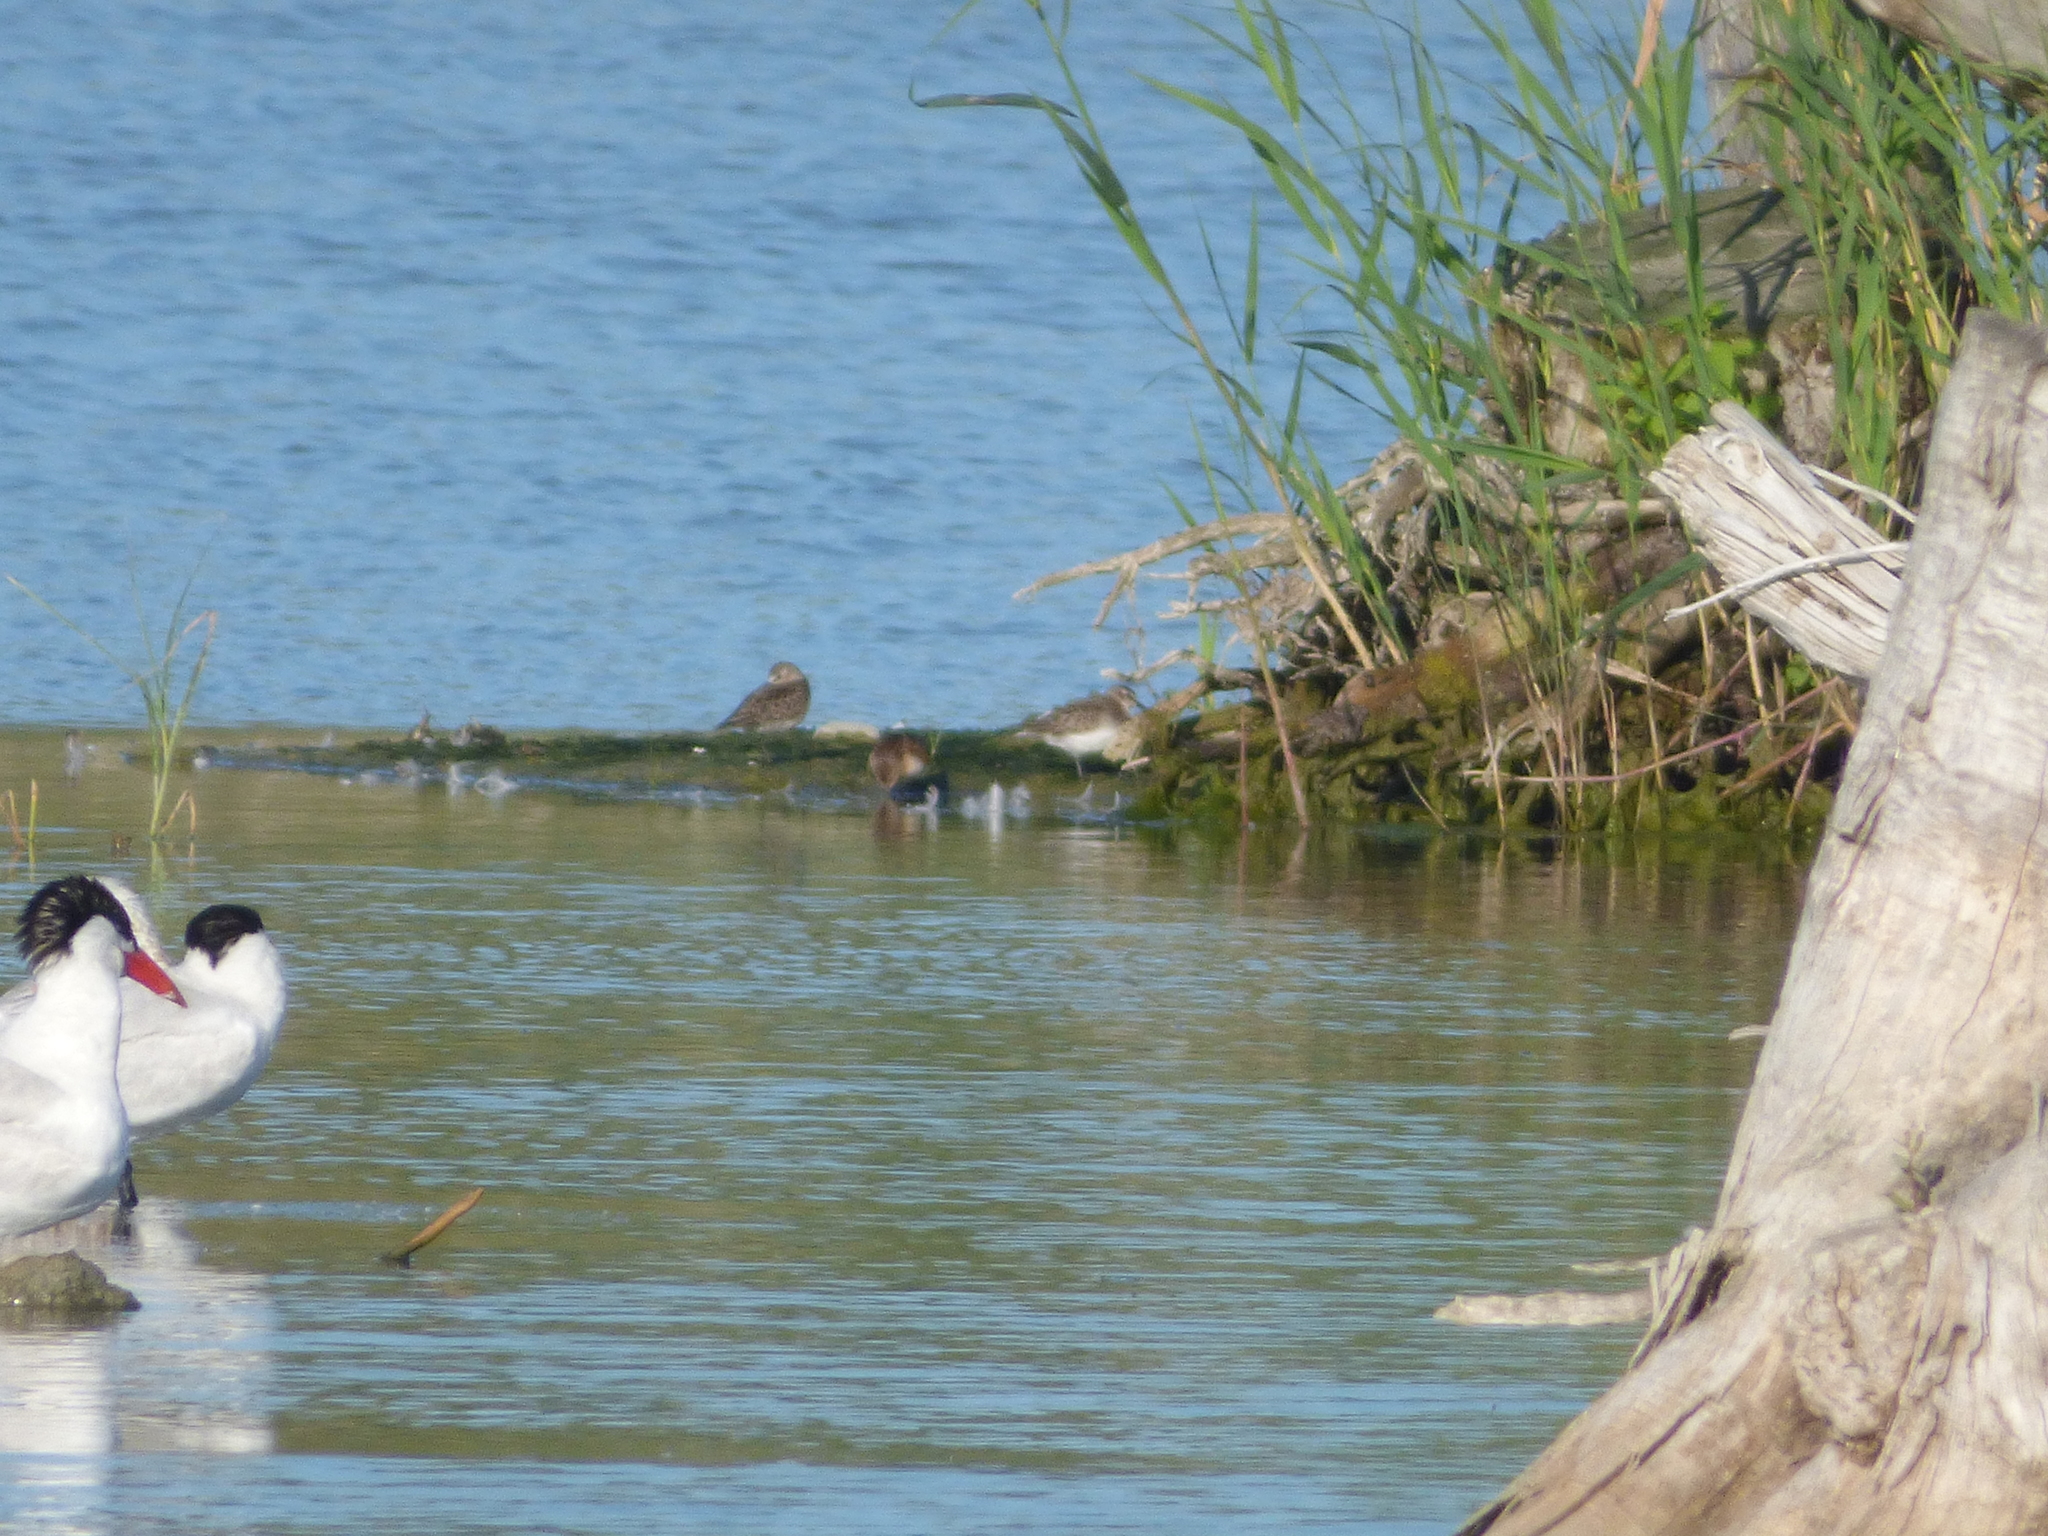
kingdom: Animalia
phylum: Chordata
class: Aves
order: Charadriiformes
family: Scolopacidae
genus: Calidris
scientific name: Calidris pusilla
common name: Semipalmated sandpiper
